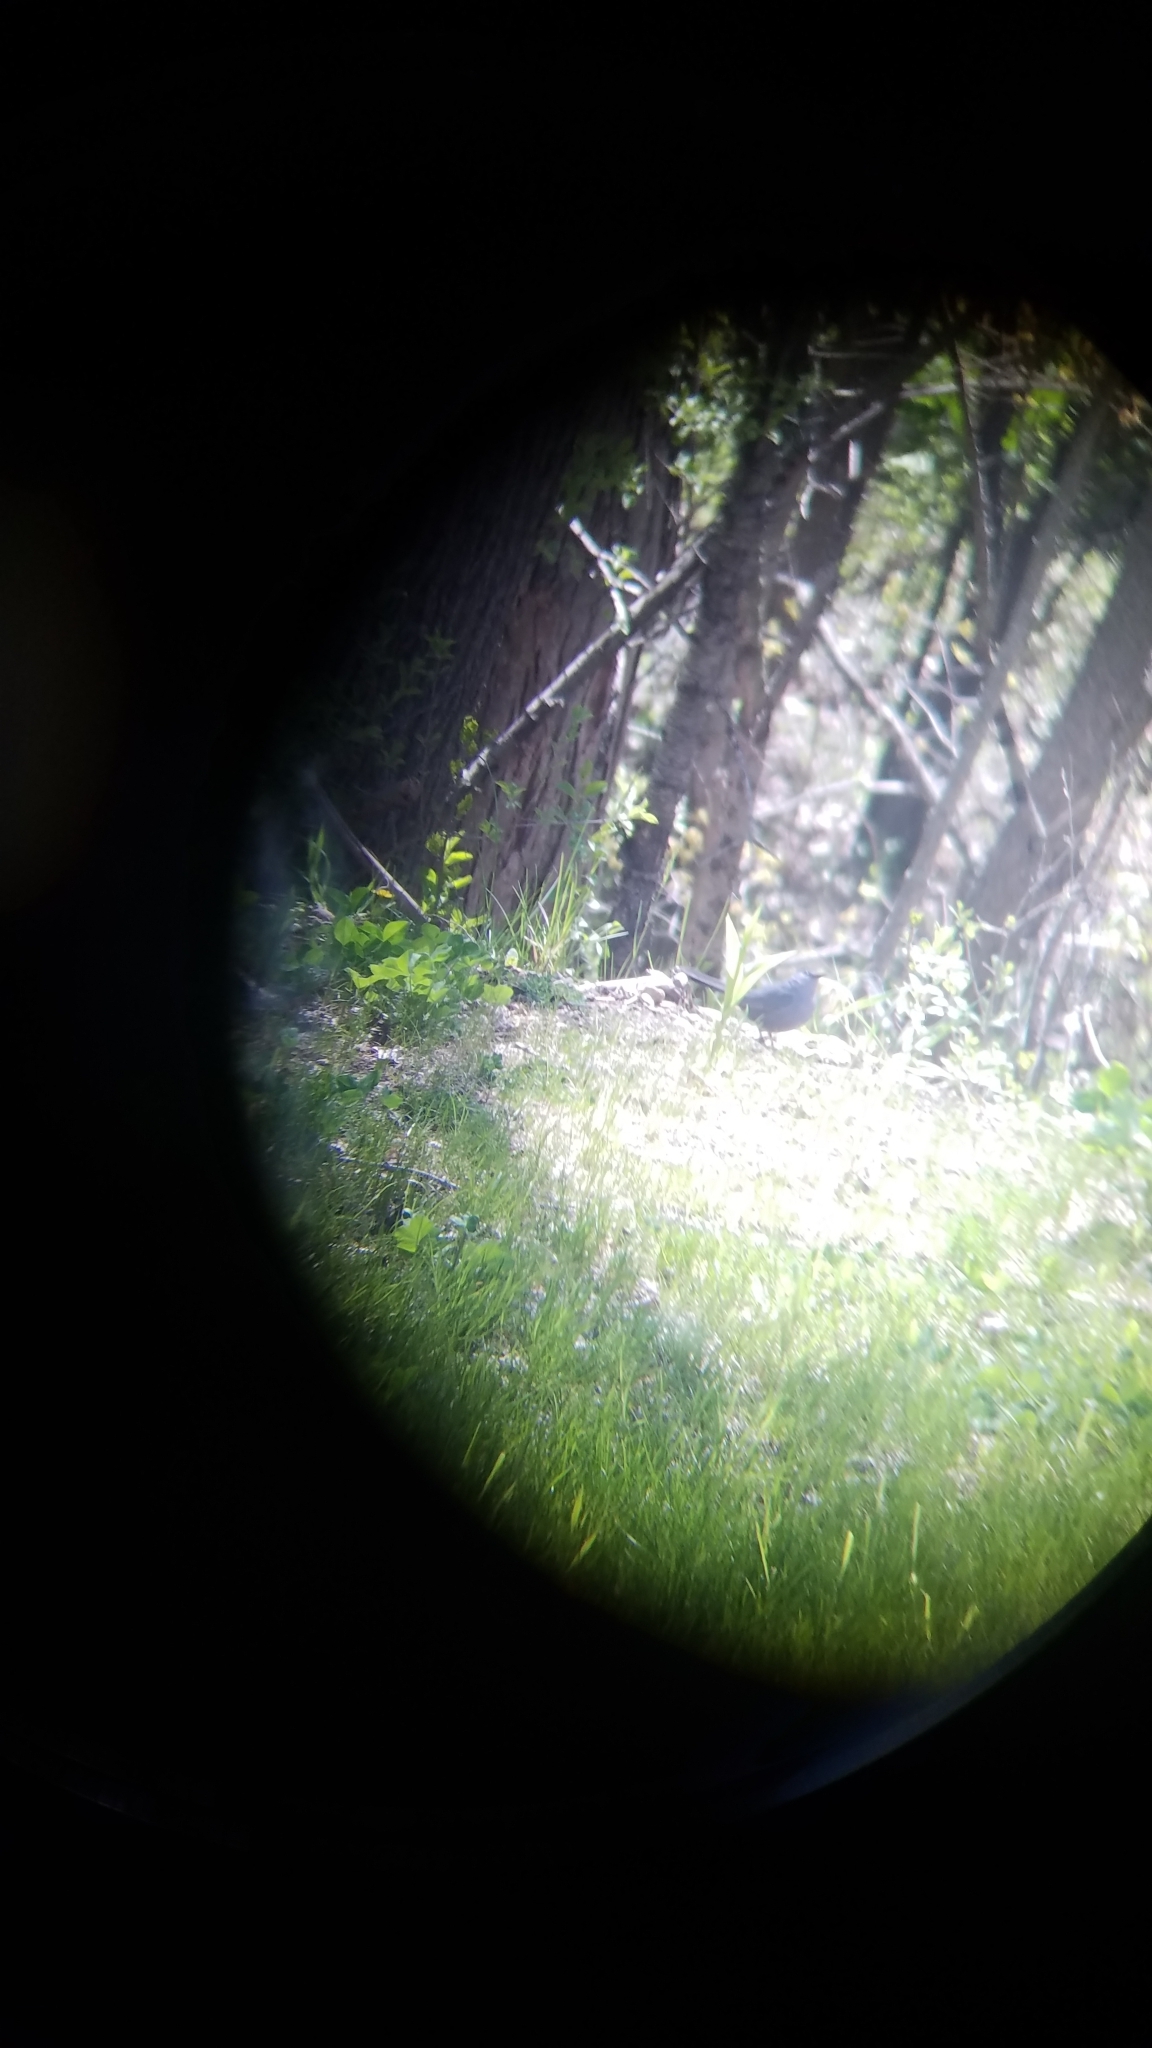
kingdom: Animalia
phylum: Chordata
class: Aves
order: Passeriformes
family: Mimidae
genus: Dumetella
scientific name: Dumetella carolinensis
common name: Gray catbird
